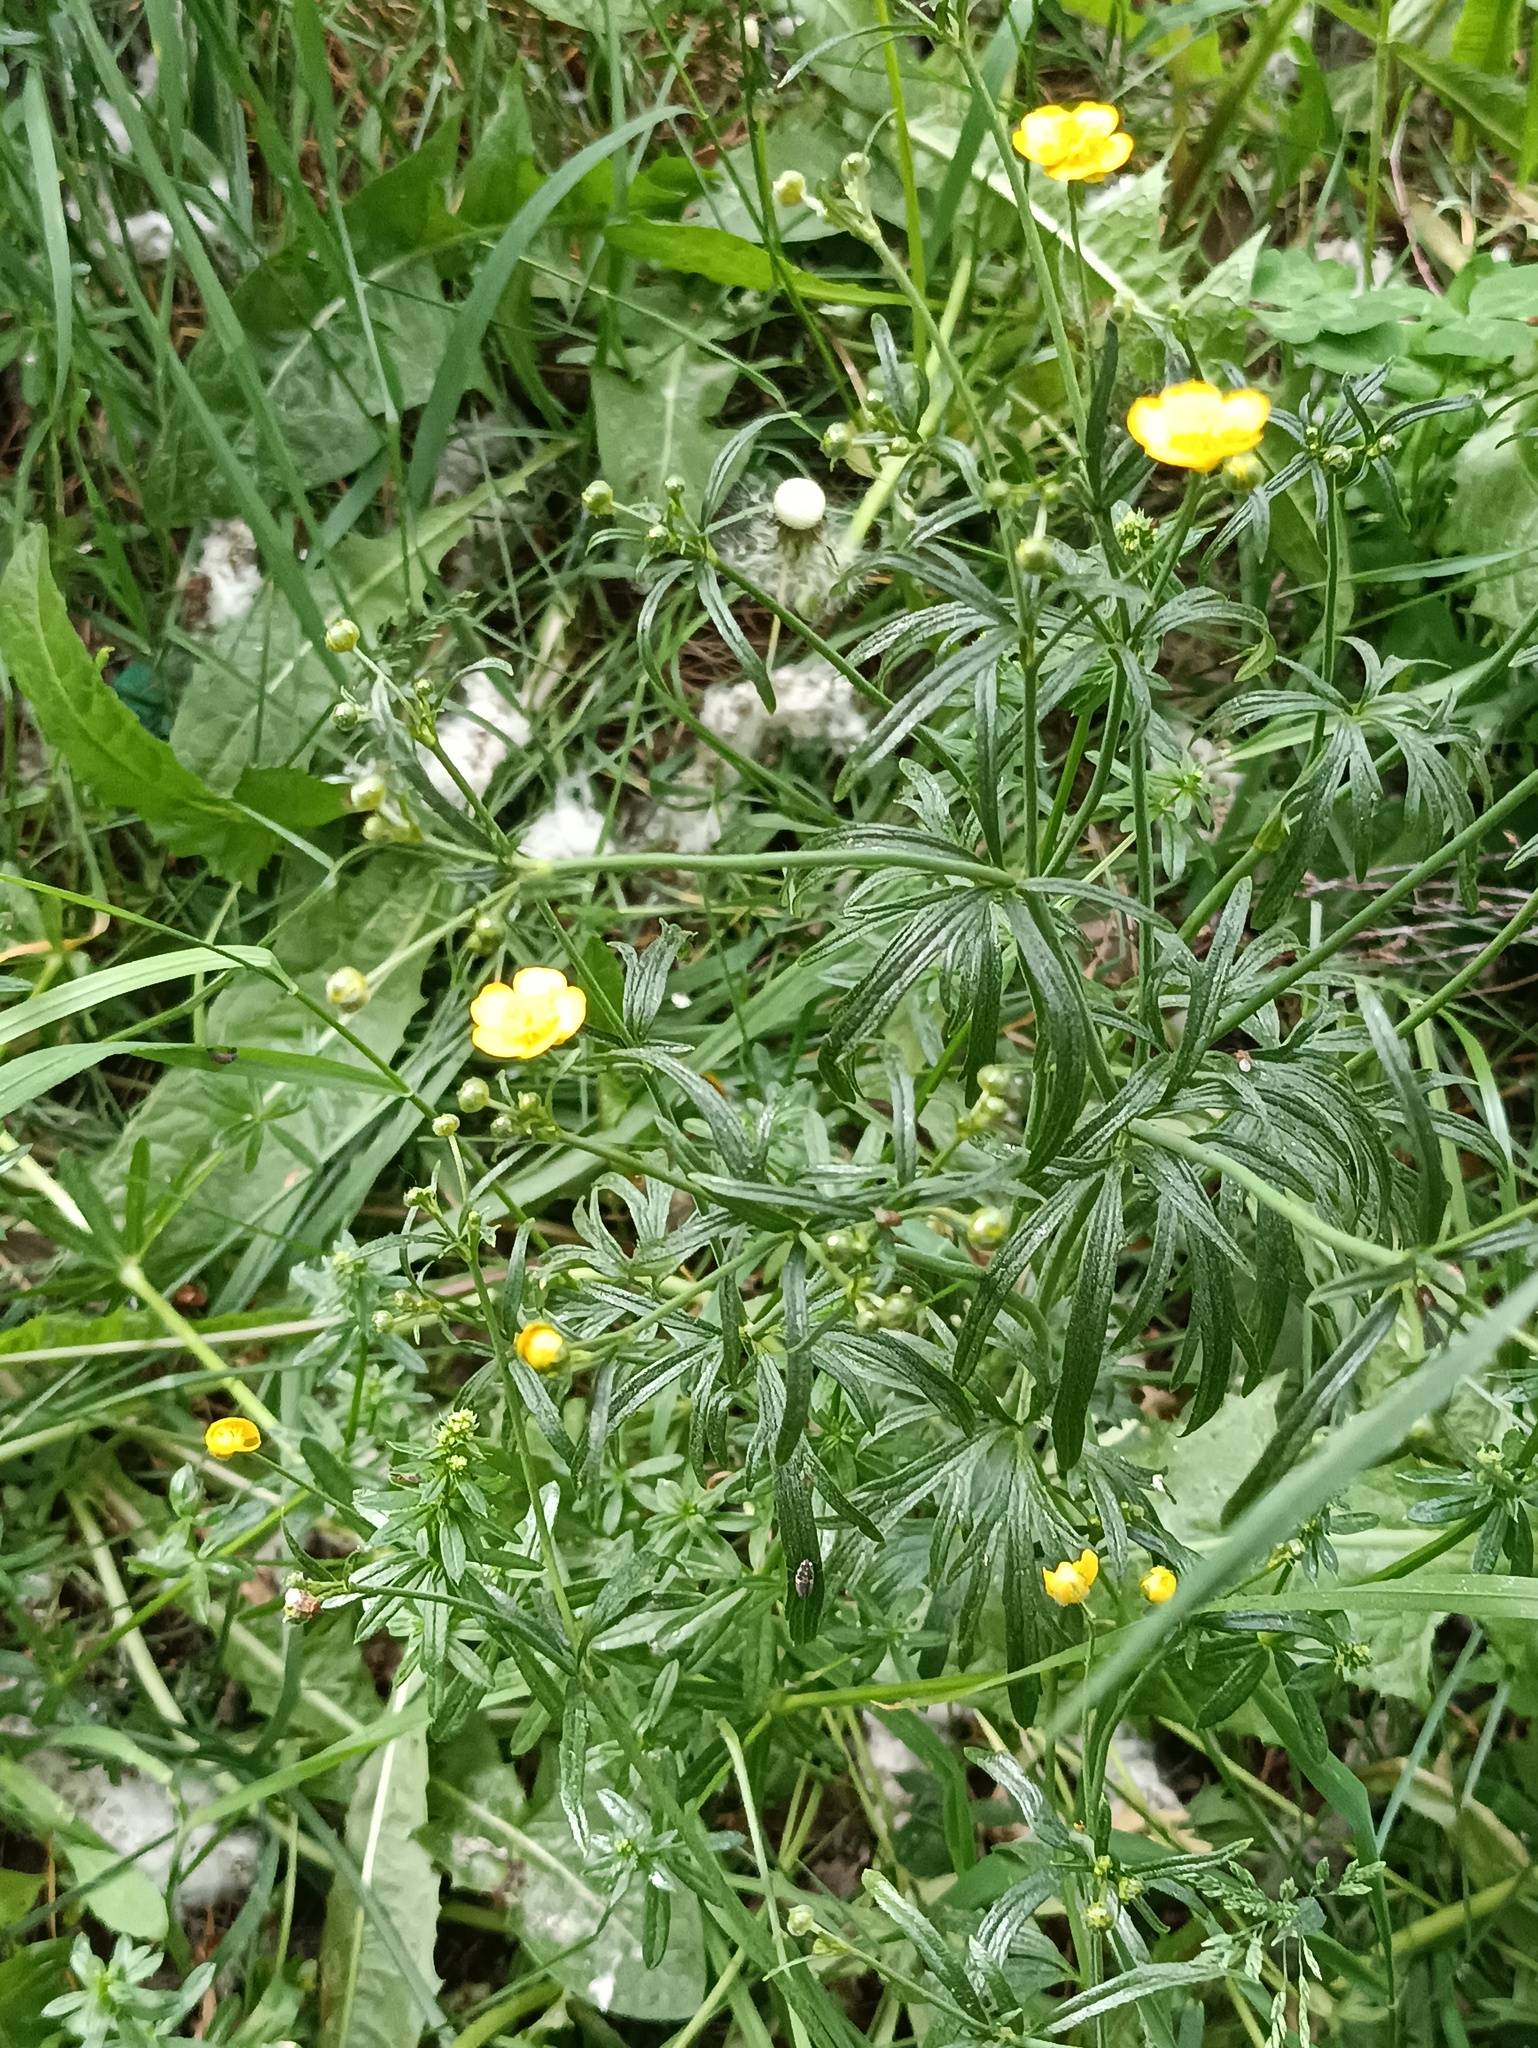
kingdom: Plantae
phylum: Tracheophyta
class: Magnoliopsida
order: Ranunculales
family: Ranunculaceae
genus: Ranunculus
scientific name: Ranunculus acris
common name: Meadow buttercup
